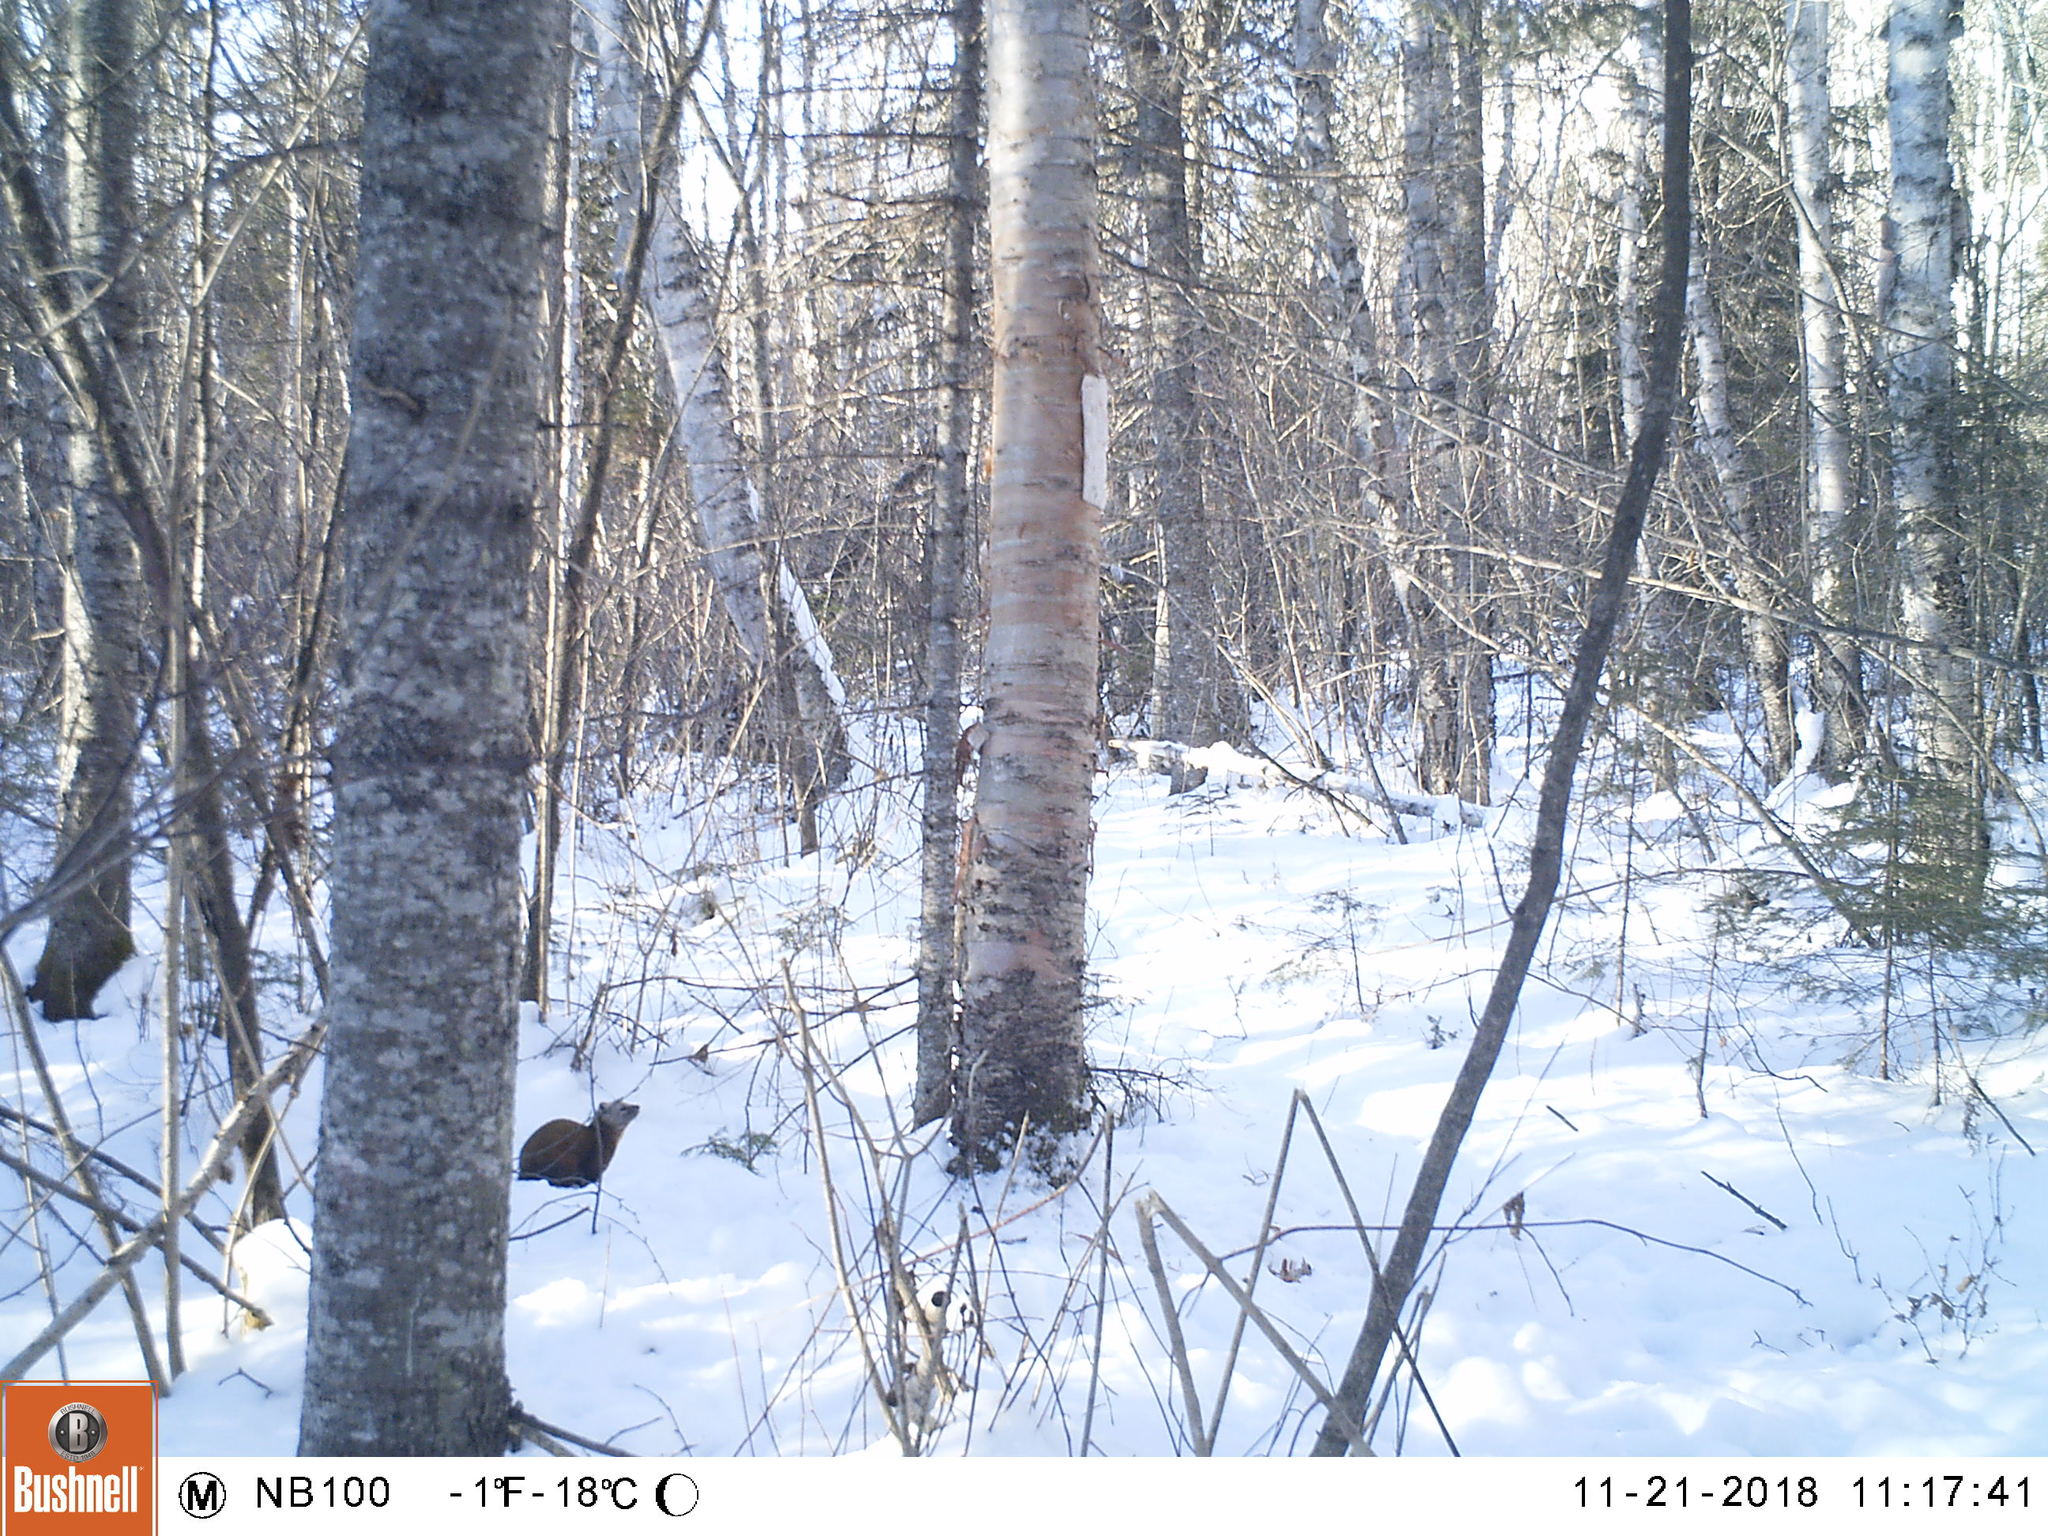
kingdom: Animalia
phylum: Chordata
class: Mammalia
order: Carnivora
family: Mustelidae
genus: Martes
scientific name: Martes americana
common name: American marten
